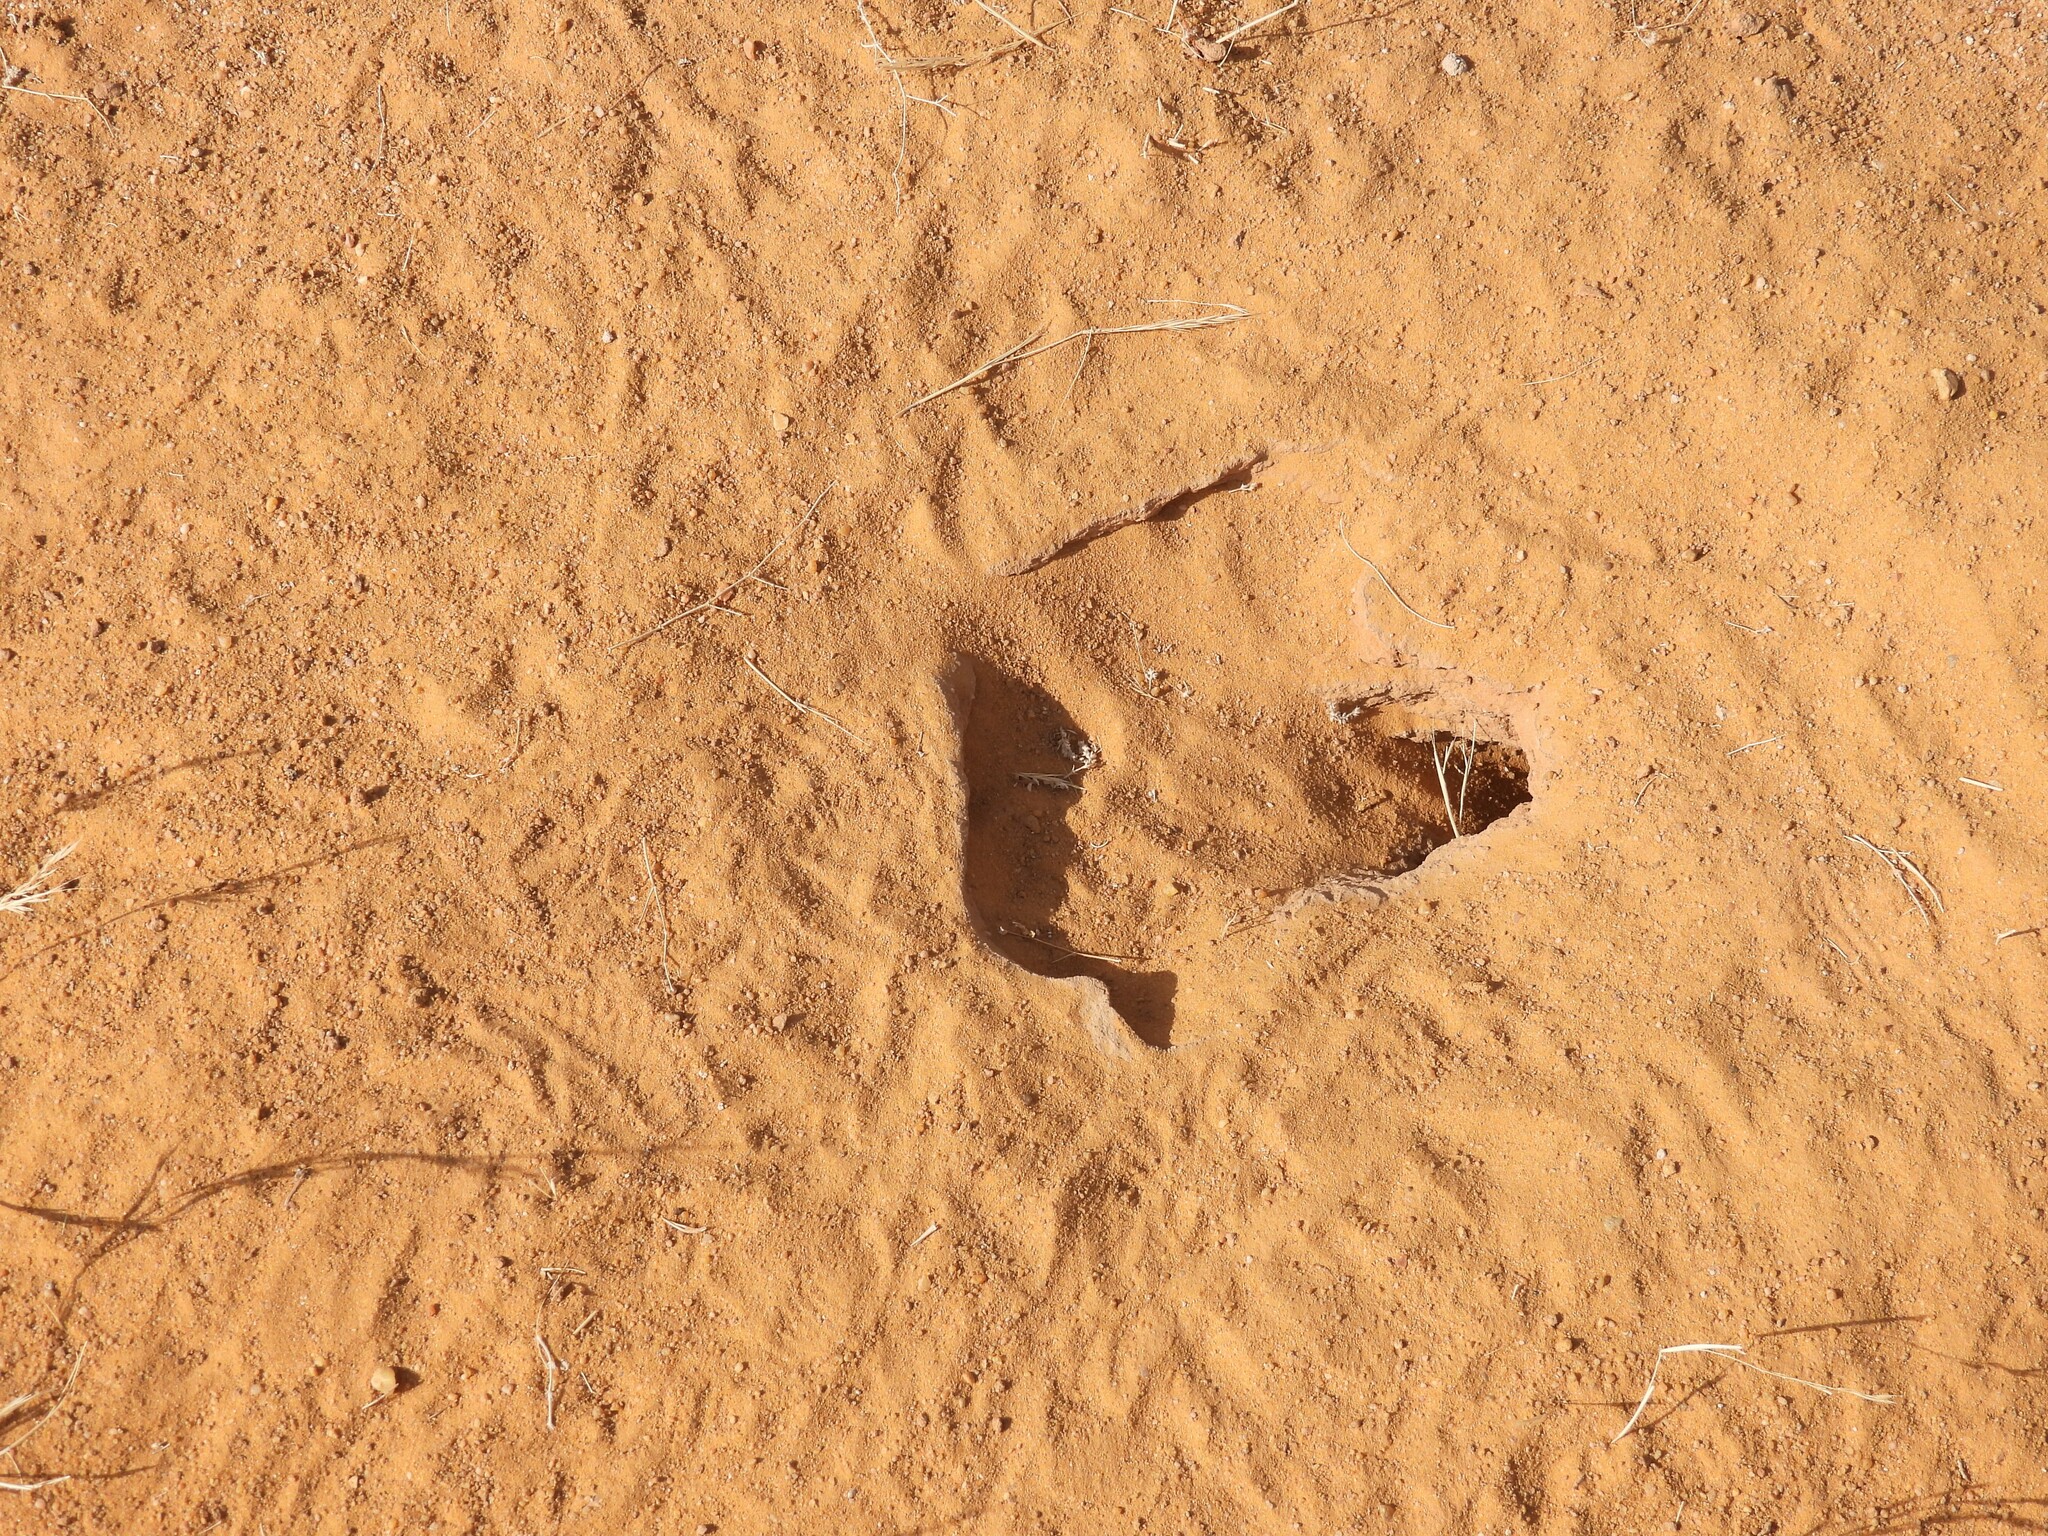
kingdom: Animalia
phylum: Chordata
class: Squamata
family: Agamidae
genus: Uromastyx
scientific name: Uromastyx aegyptia
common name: Egyptian mastigure
